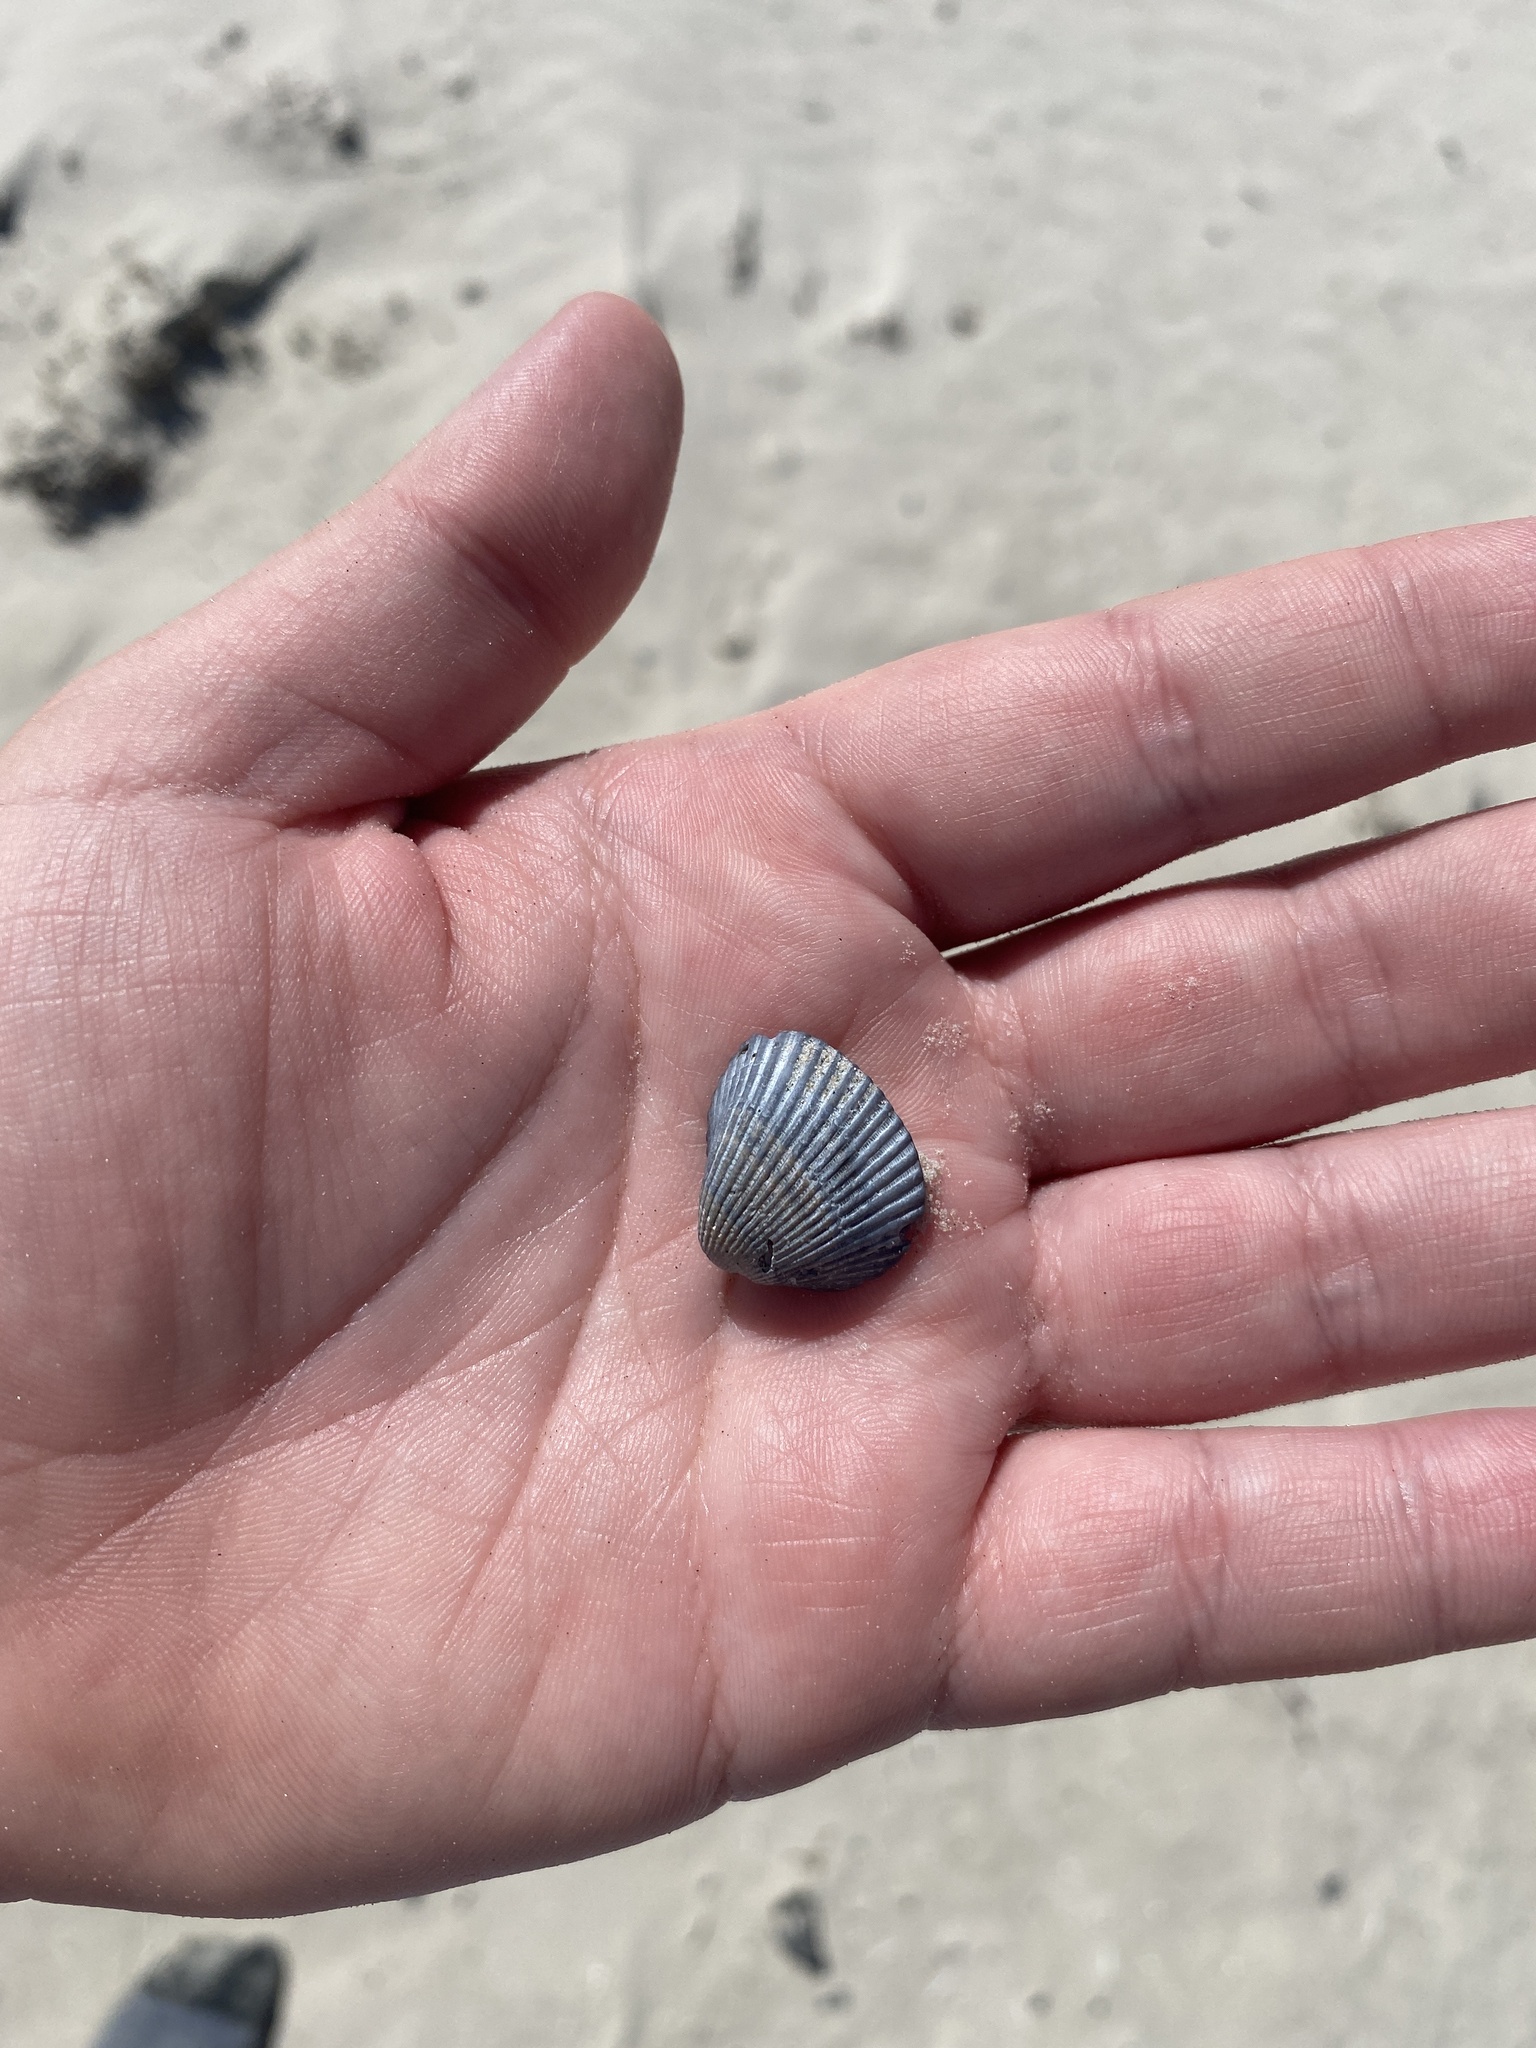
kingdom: Animalia
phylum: Mollusca
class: Bivalvia
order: Arcida
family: Noetiidae
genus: Noetia
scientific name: Noetia ponderosa
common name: Ponderous ark
